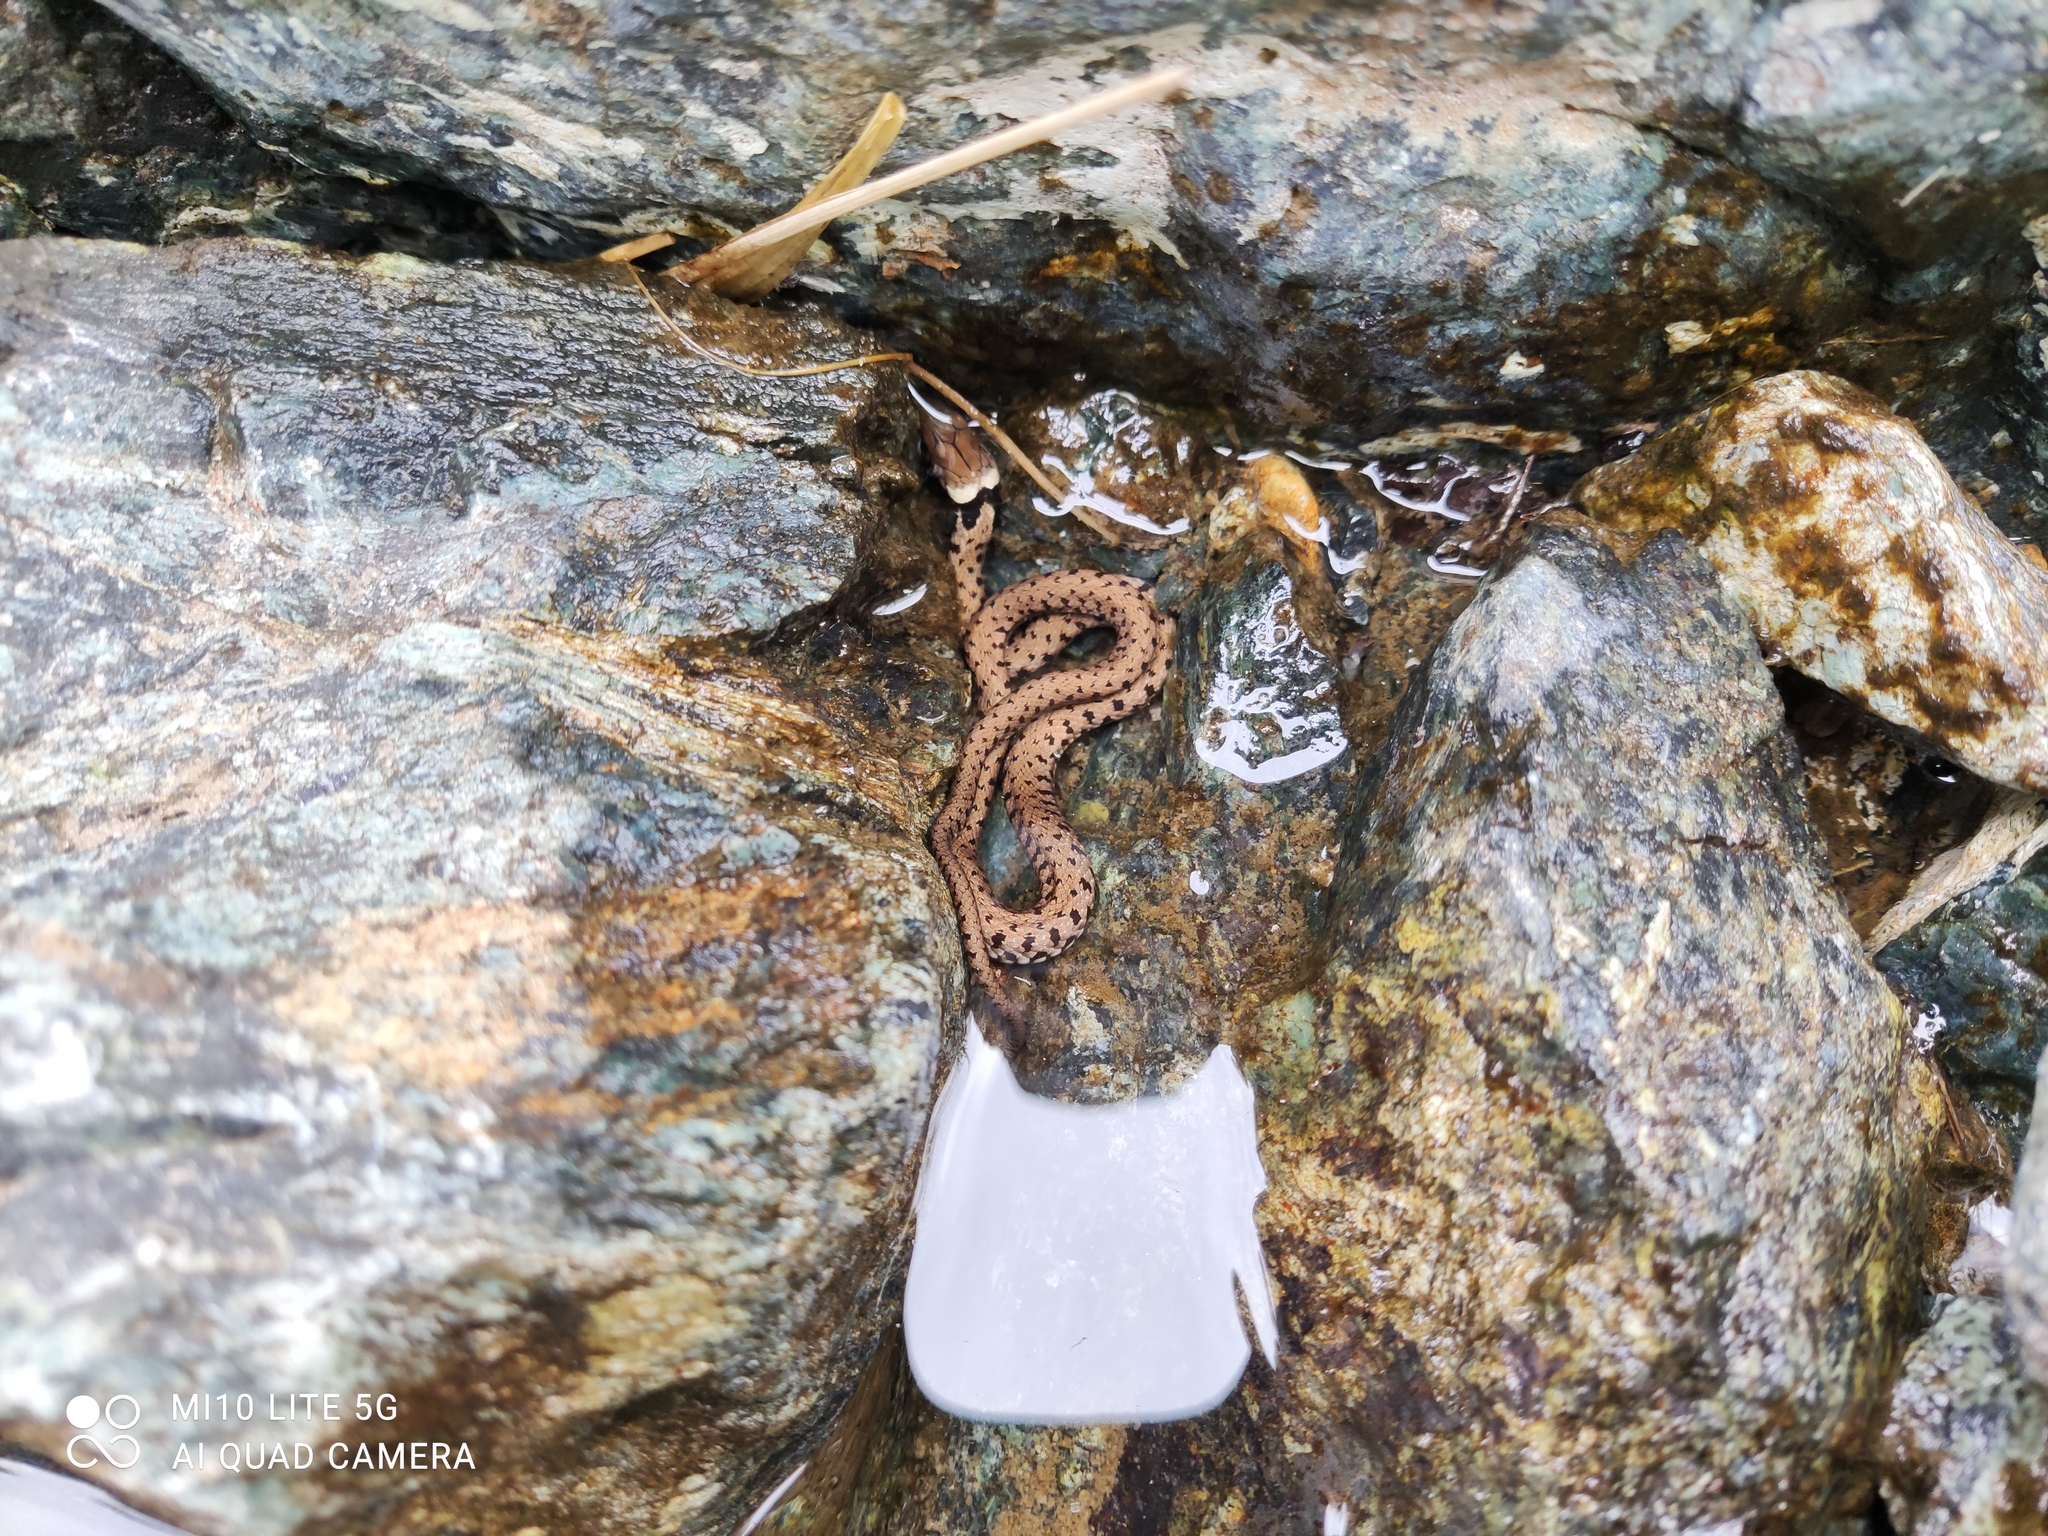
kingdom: Animalia
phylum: Chordata
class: Squamata
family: Colubridae
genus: Natrix
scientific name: Natrix helvetica
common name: Banded grass snake
